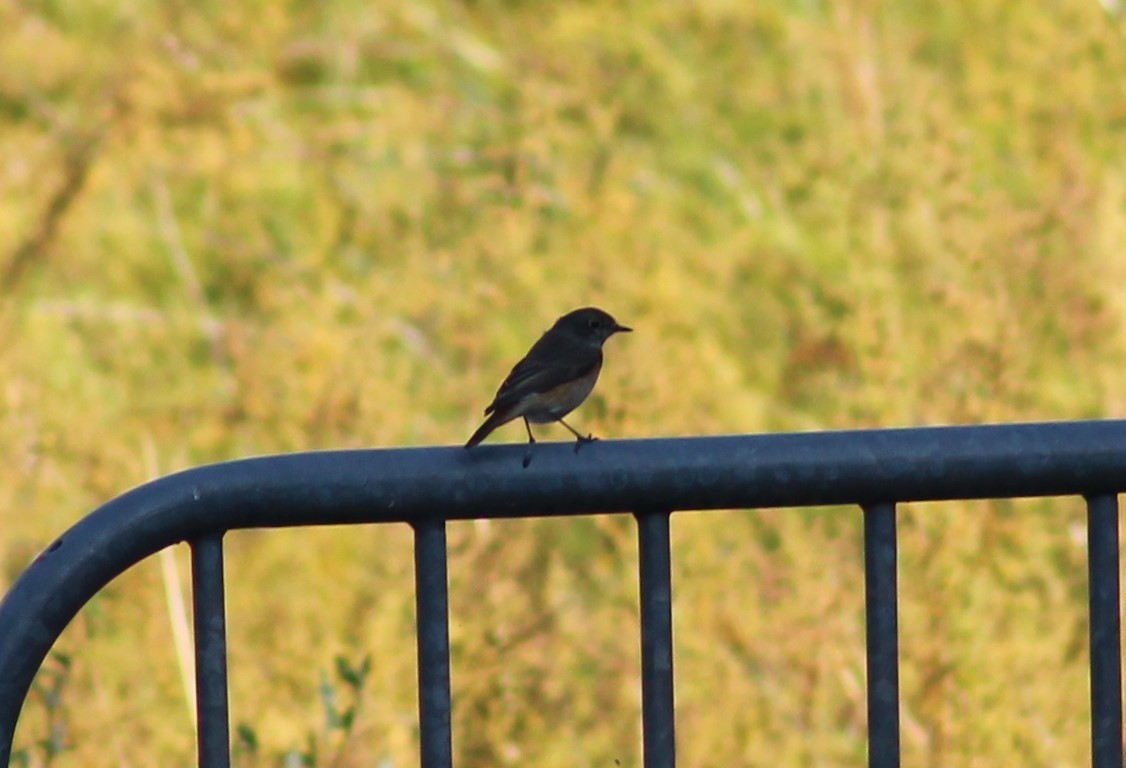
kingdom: Animalia
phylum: Chordata
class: Aves
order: Passeriformes
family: Muscicapidae
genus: Phoenicurus
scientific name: Phoenicurus phoenicurus
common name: Common redstart
